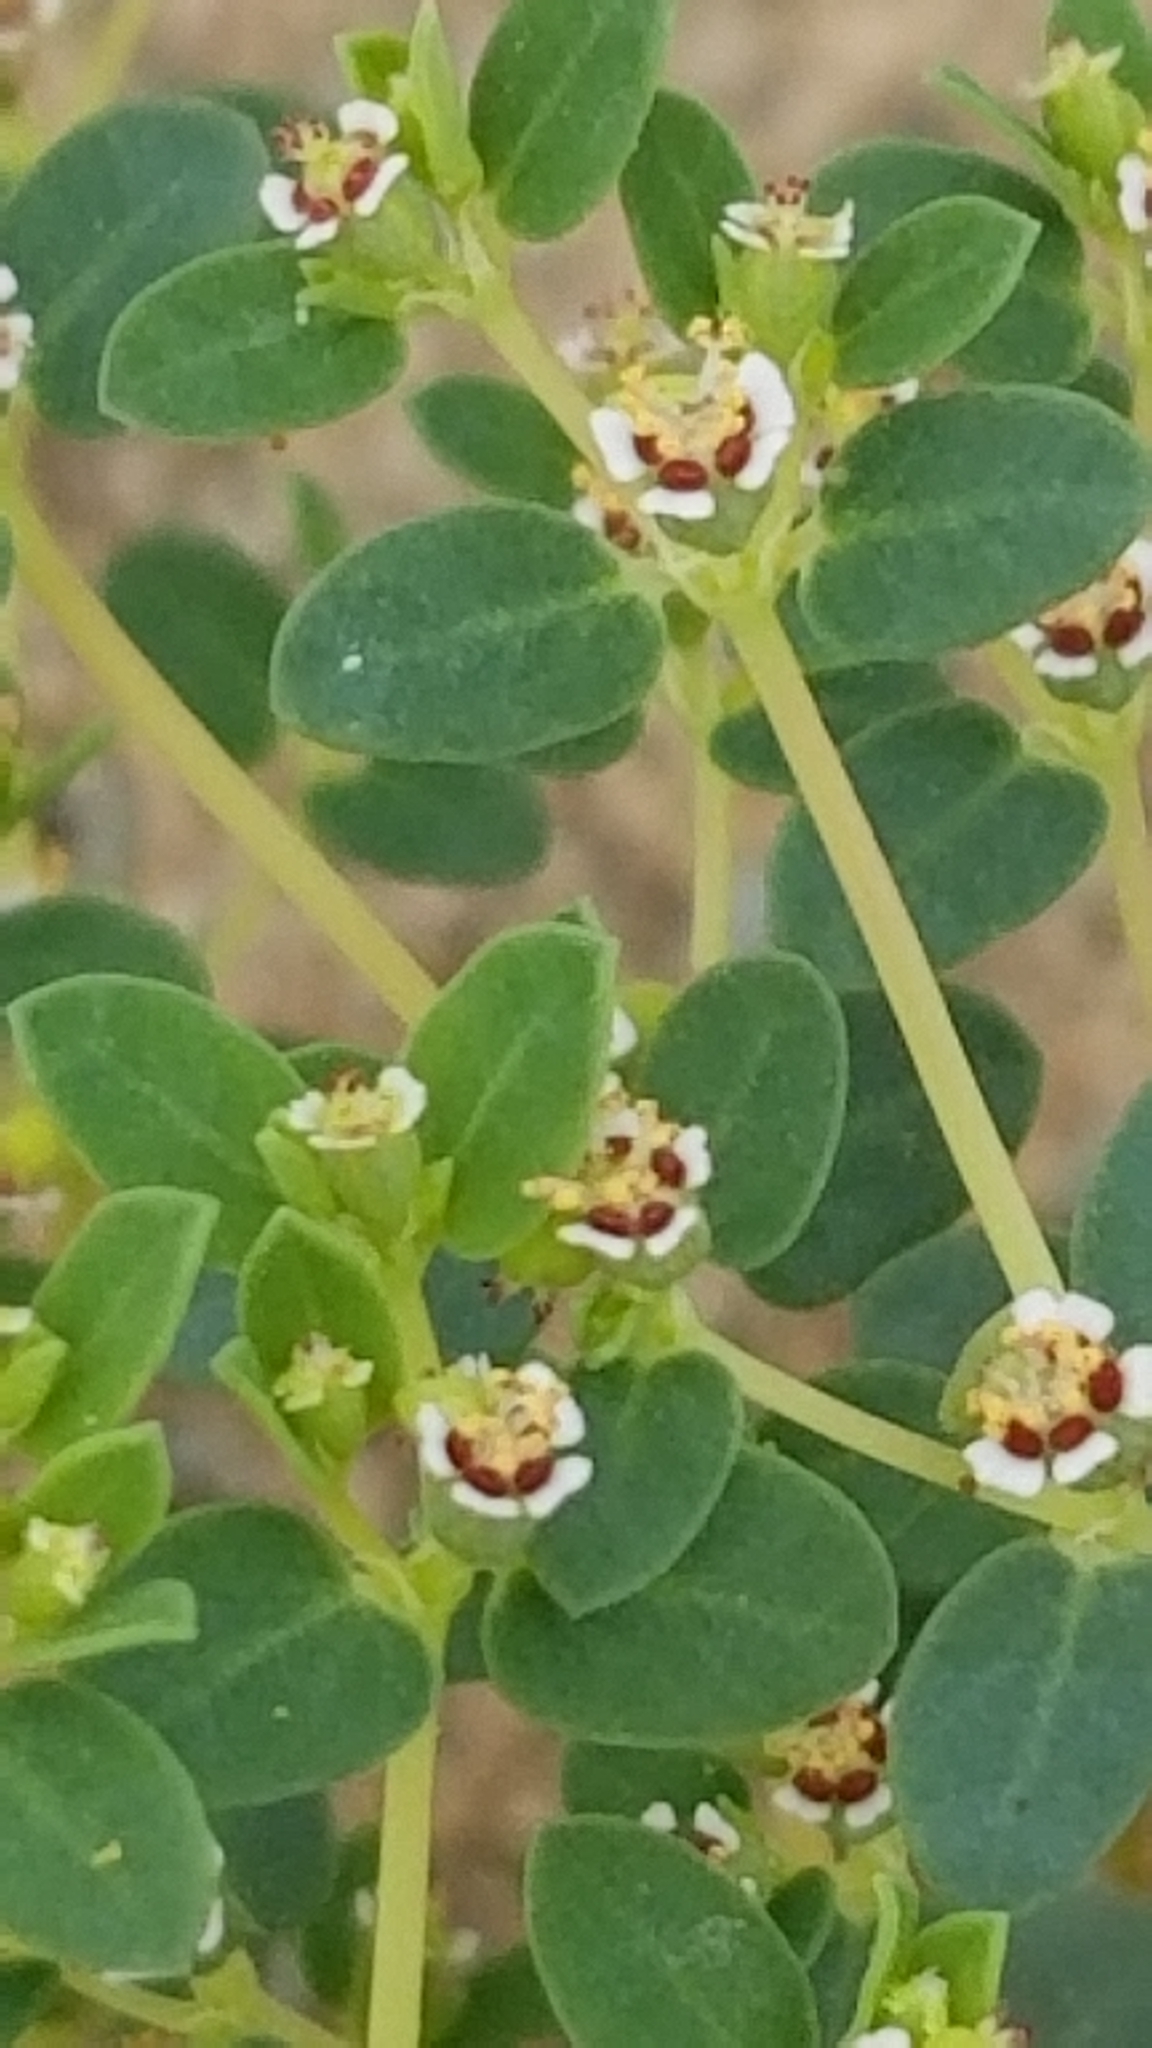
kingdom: Plantae
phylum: Tracheophyta
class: Magnoliopsida
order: Malpighiales
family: Euphorbiaceae
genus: Euphorbia
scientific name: Euphorbia polycarpa
